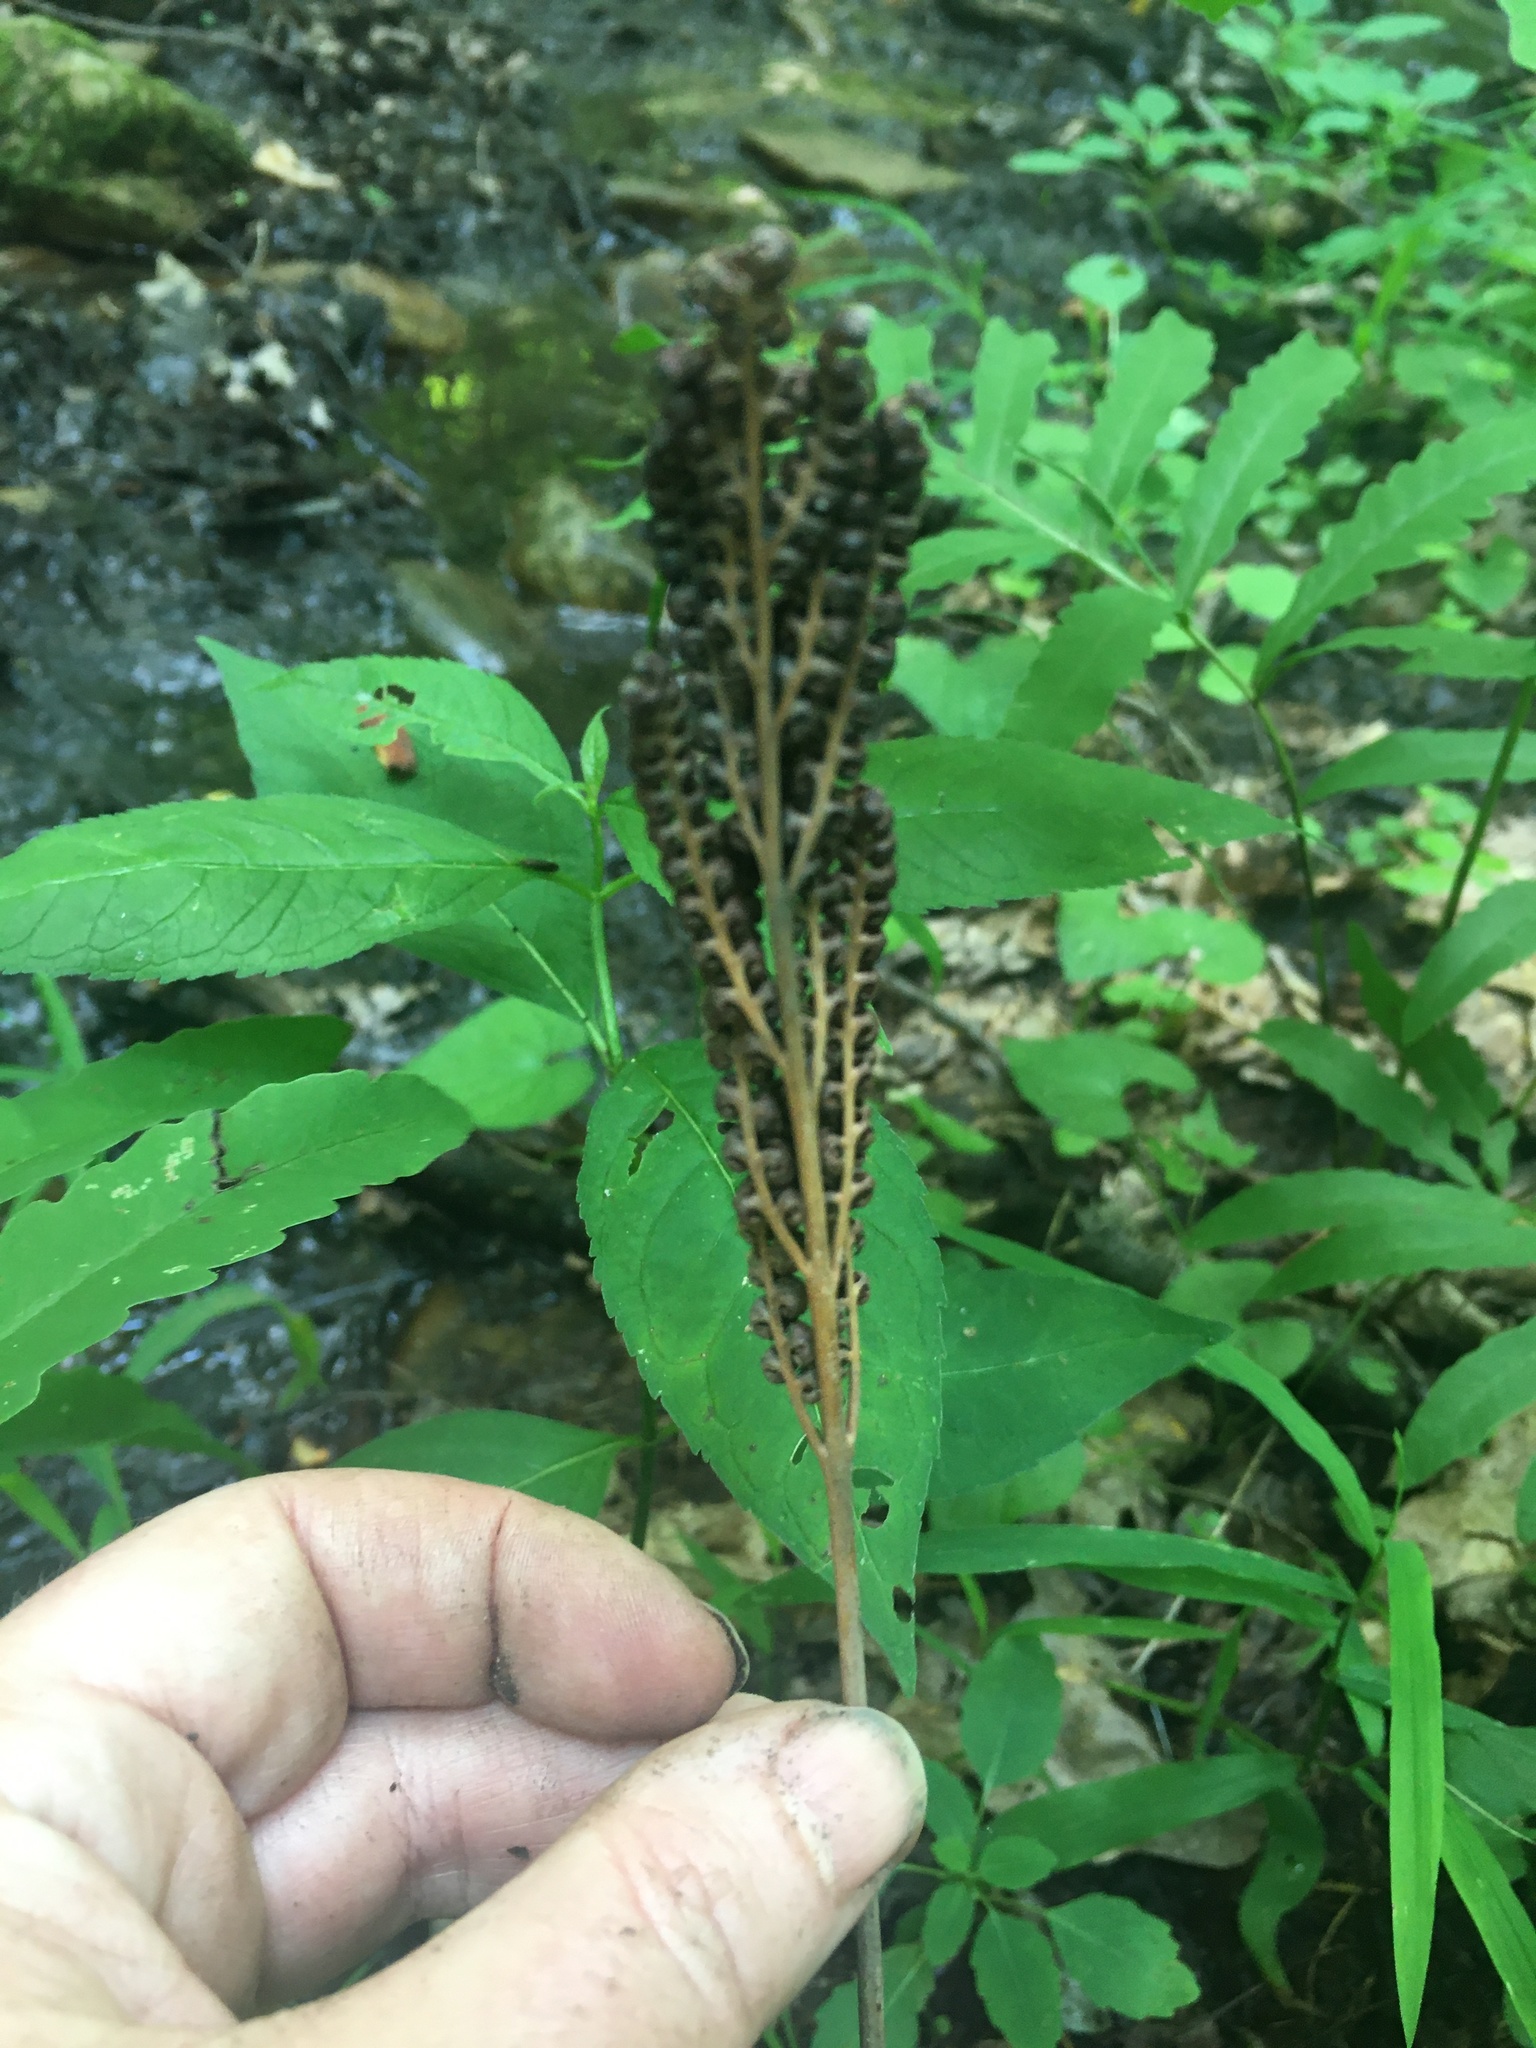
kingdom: Plantae
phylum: Tracheophyta
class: Polypodiopsida
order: Polypodiales
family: Onocleaceae
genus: Onoclea
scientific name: Onoclea sensibilis
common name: Sensitive fern
